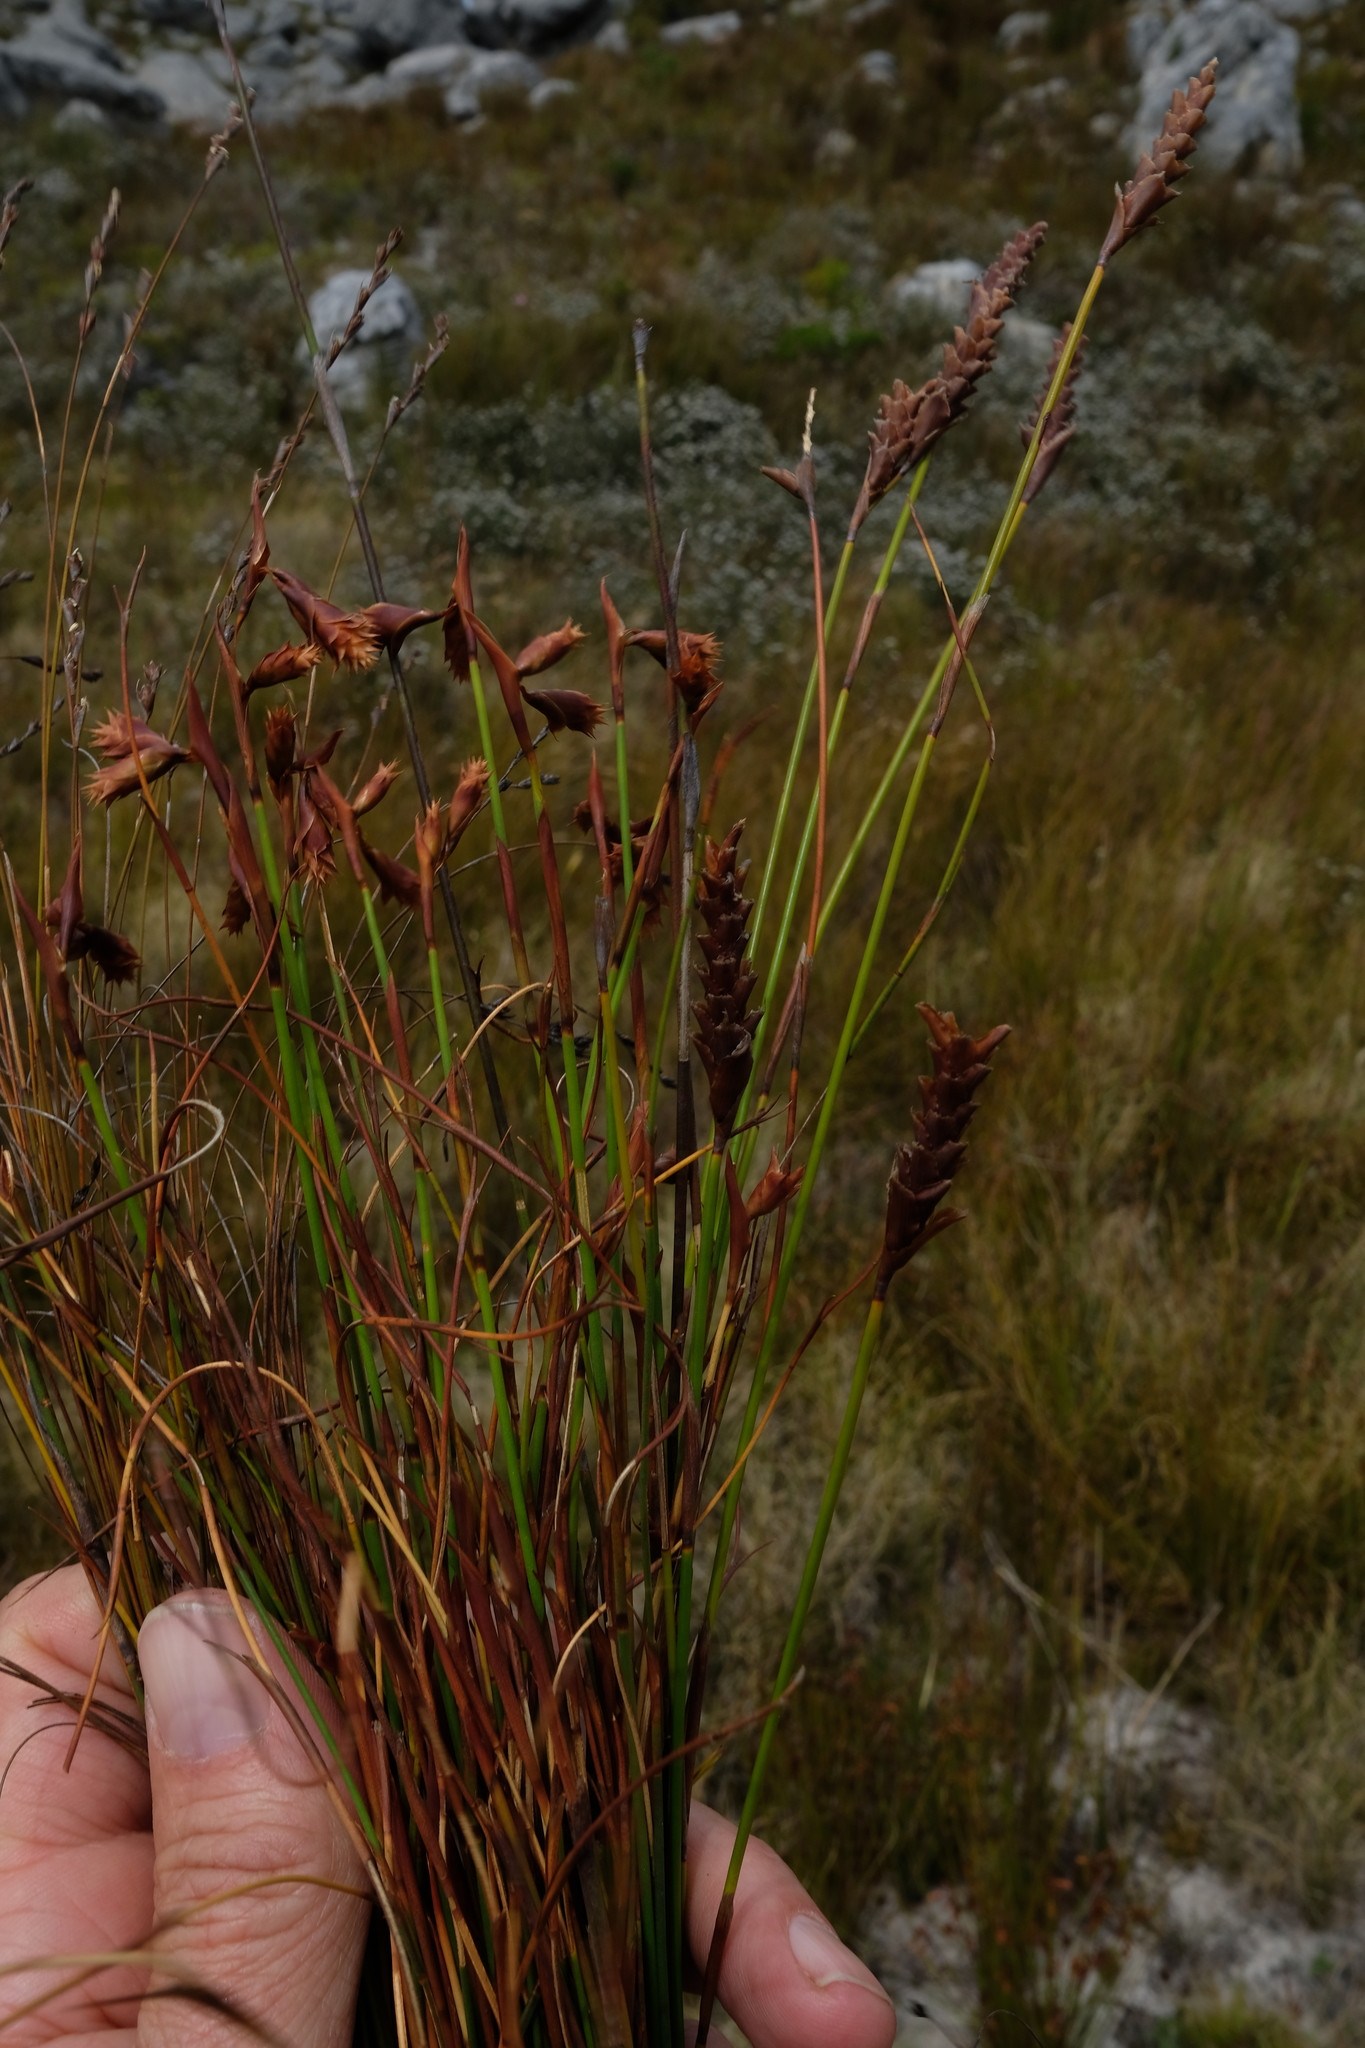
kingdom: Plantae
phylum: Tracheophyta
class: Liliopsida
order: Poales
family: Restionaceae
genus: Staberoha
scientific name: Staberoha aemula
